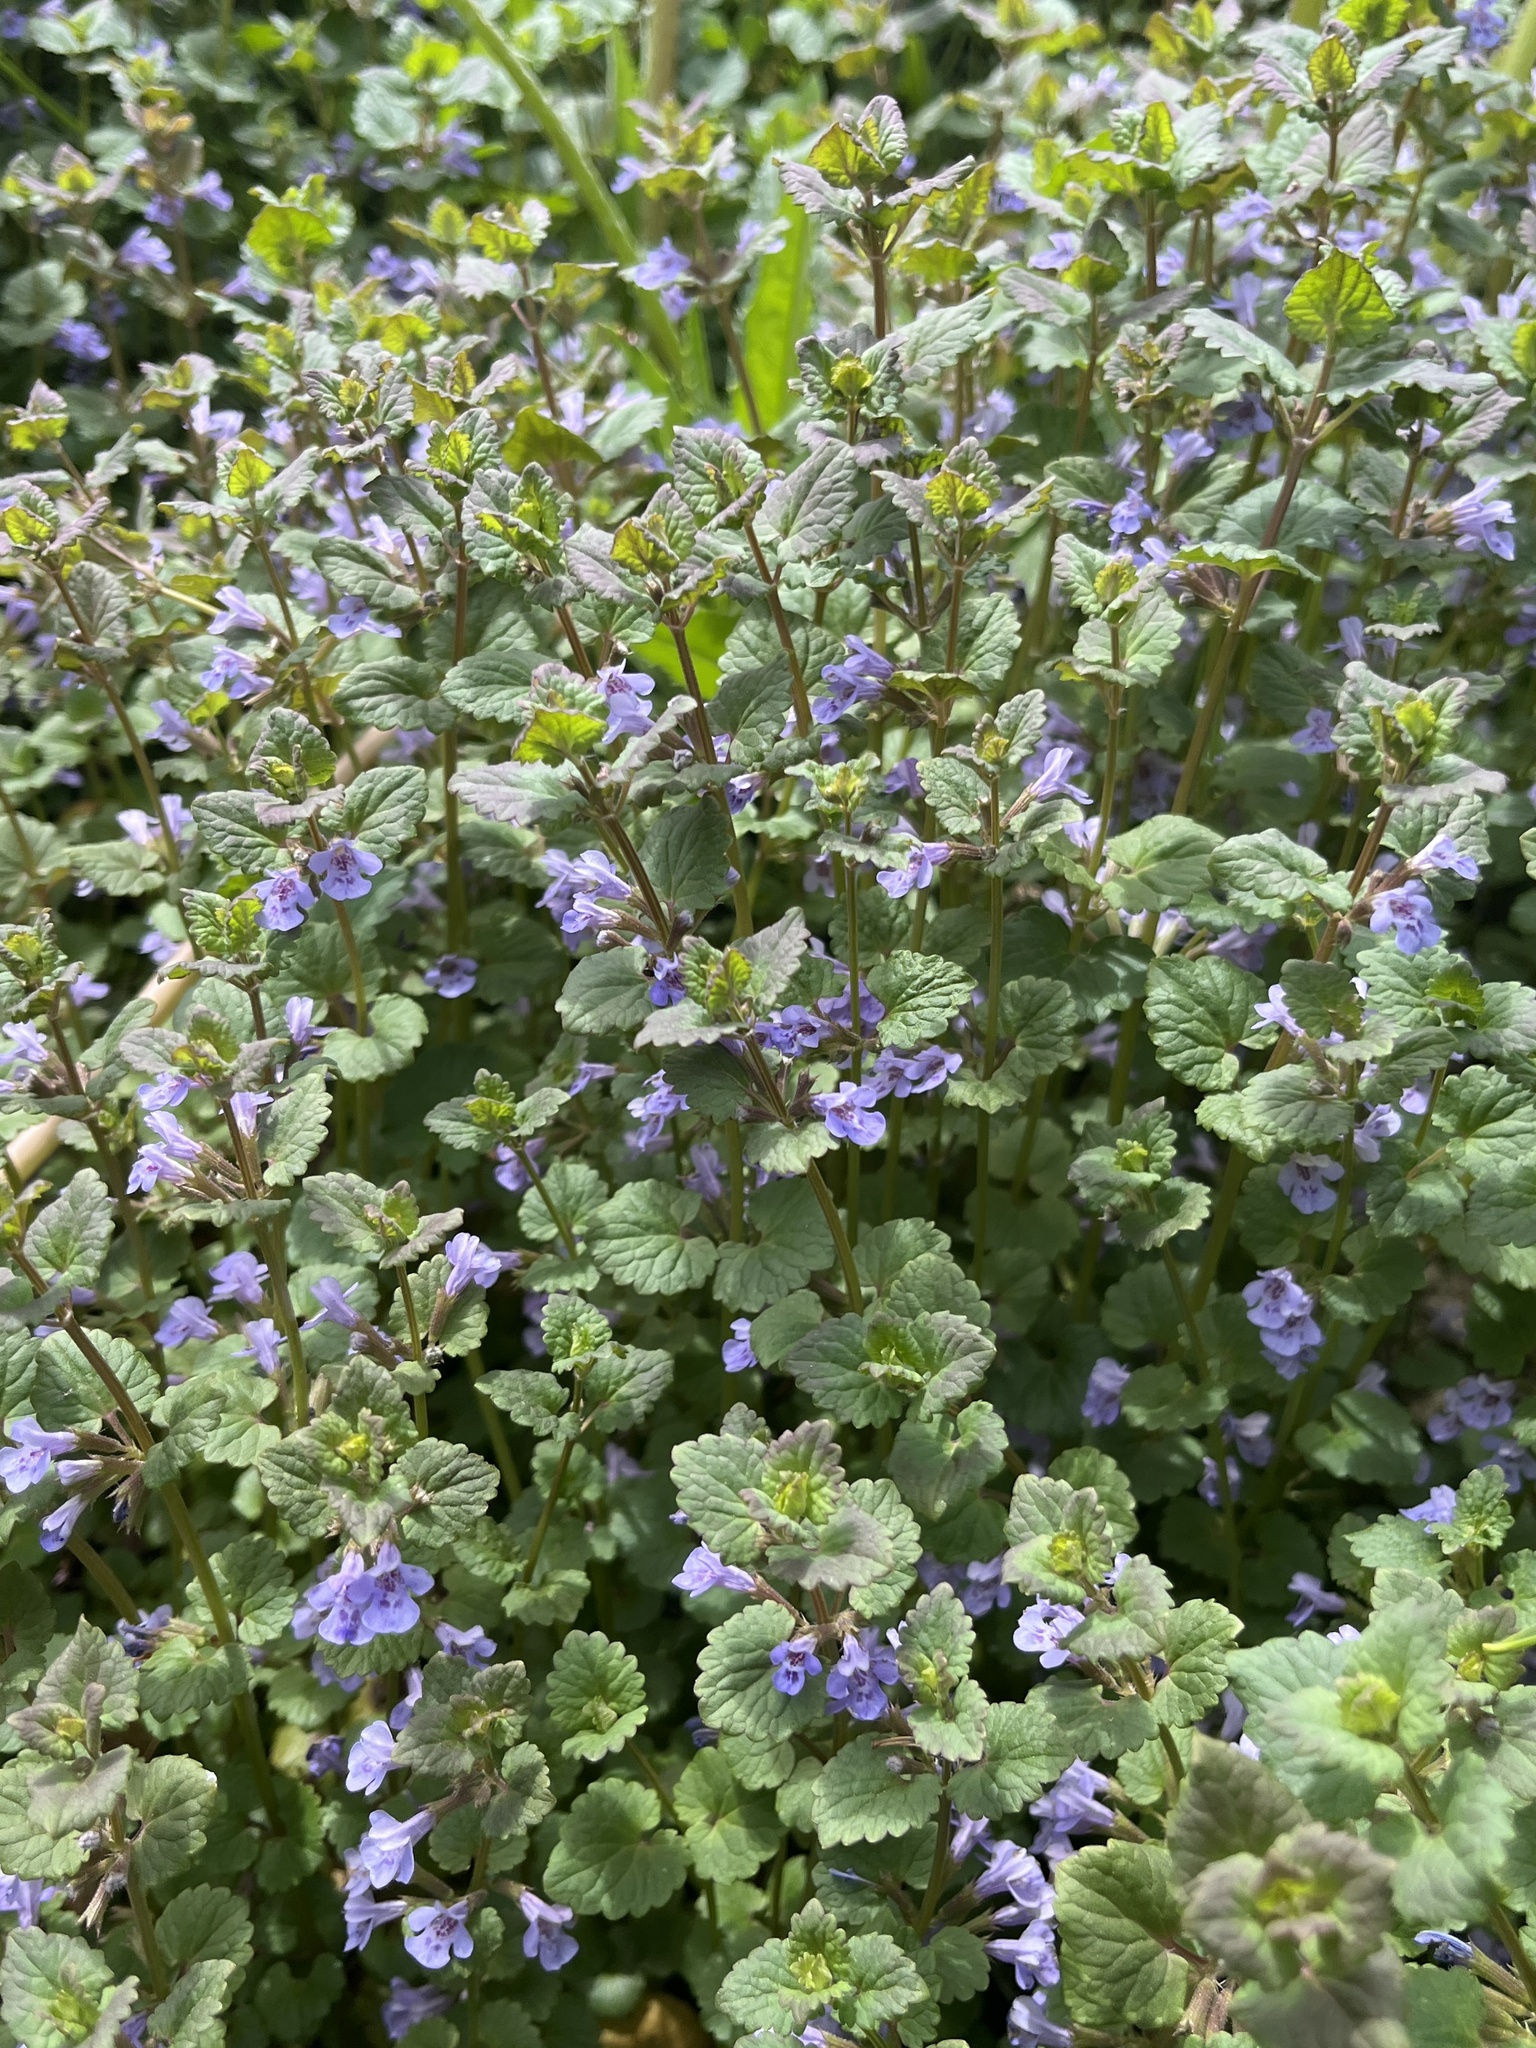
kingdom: Plantae
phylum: Tracheophyta
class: Magnoliopsida
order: Lamiales
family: Lamiaceae
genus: Glechoma
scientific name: Glechoma hederacea
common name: Ground ivy
